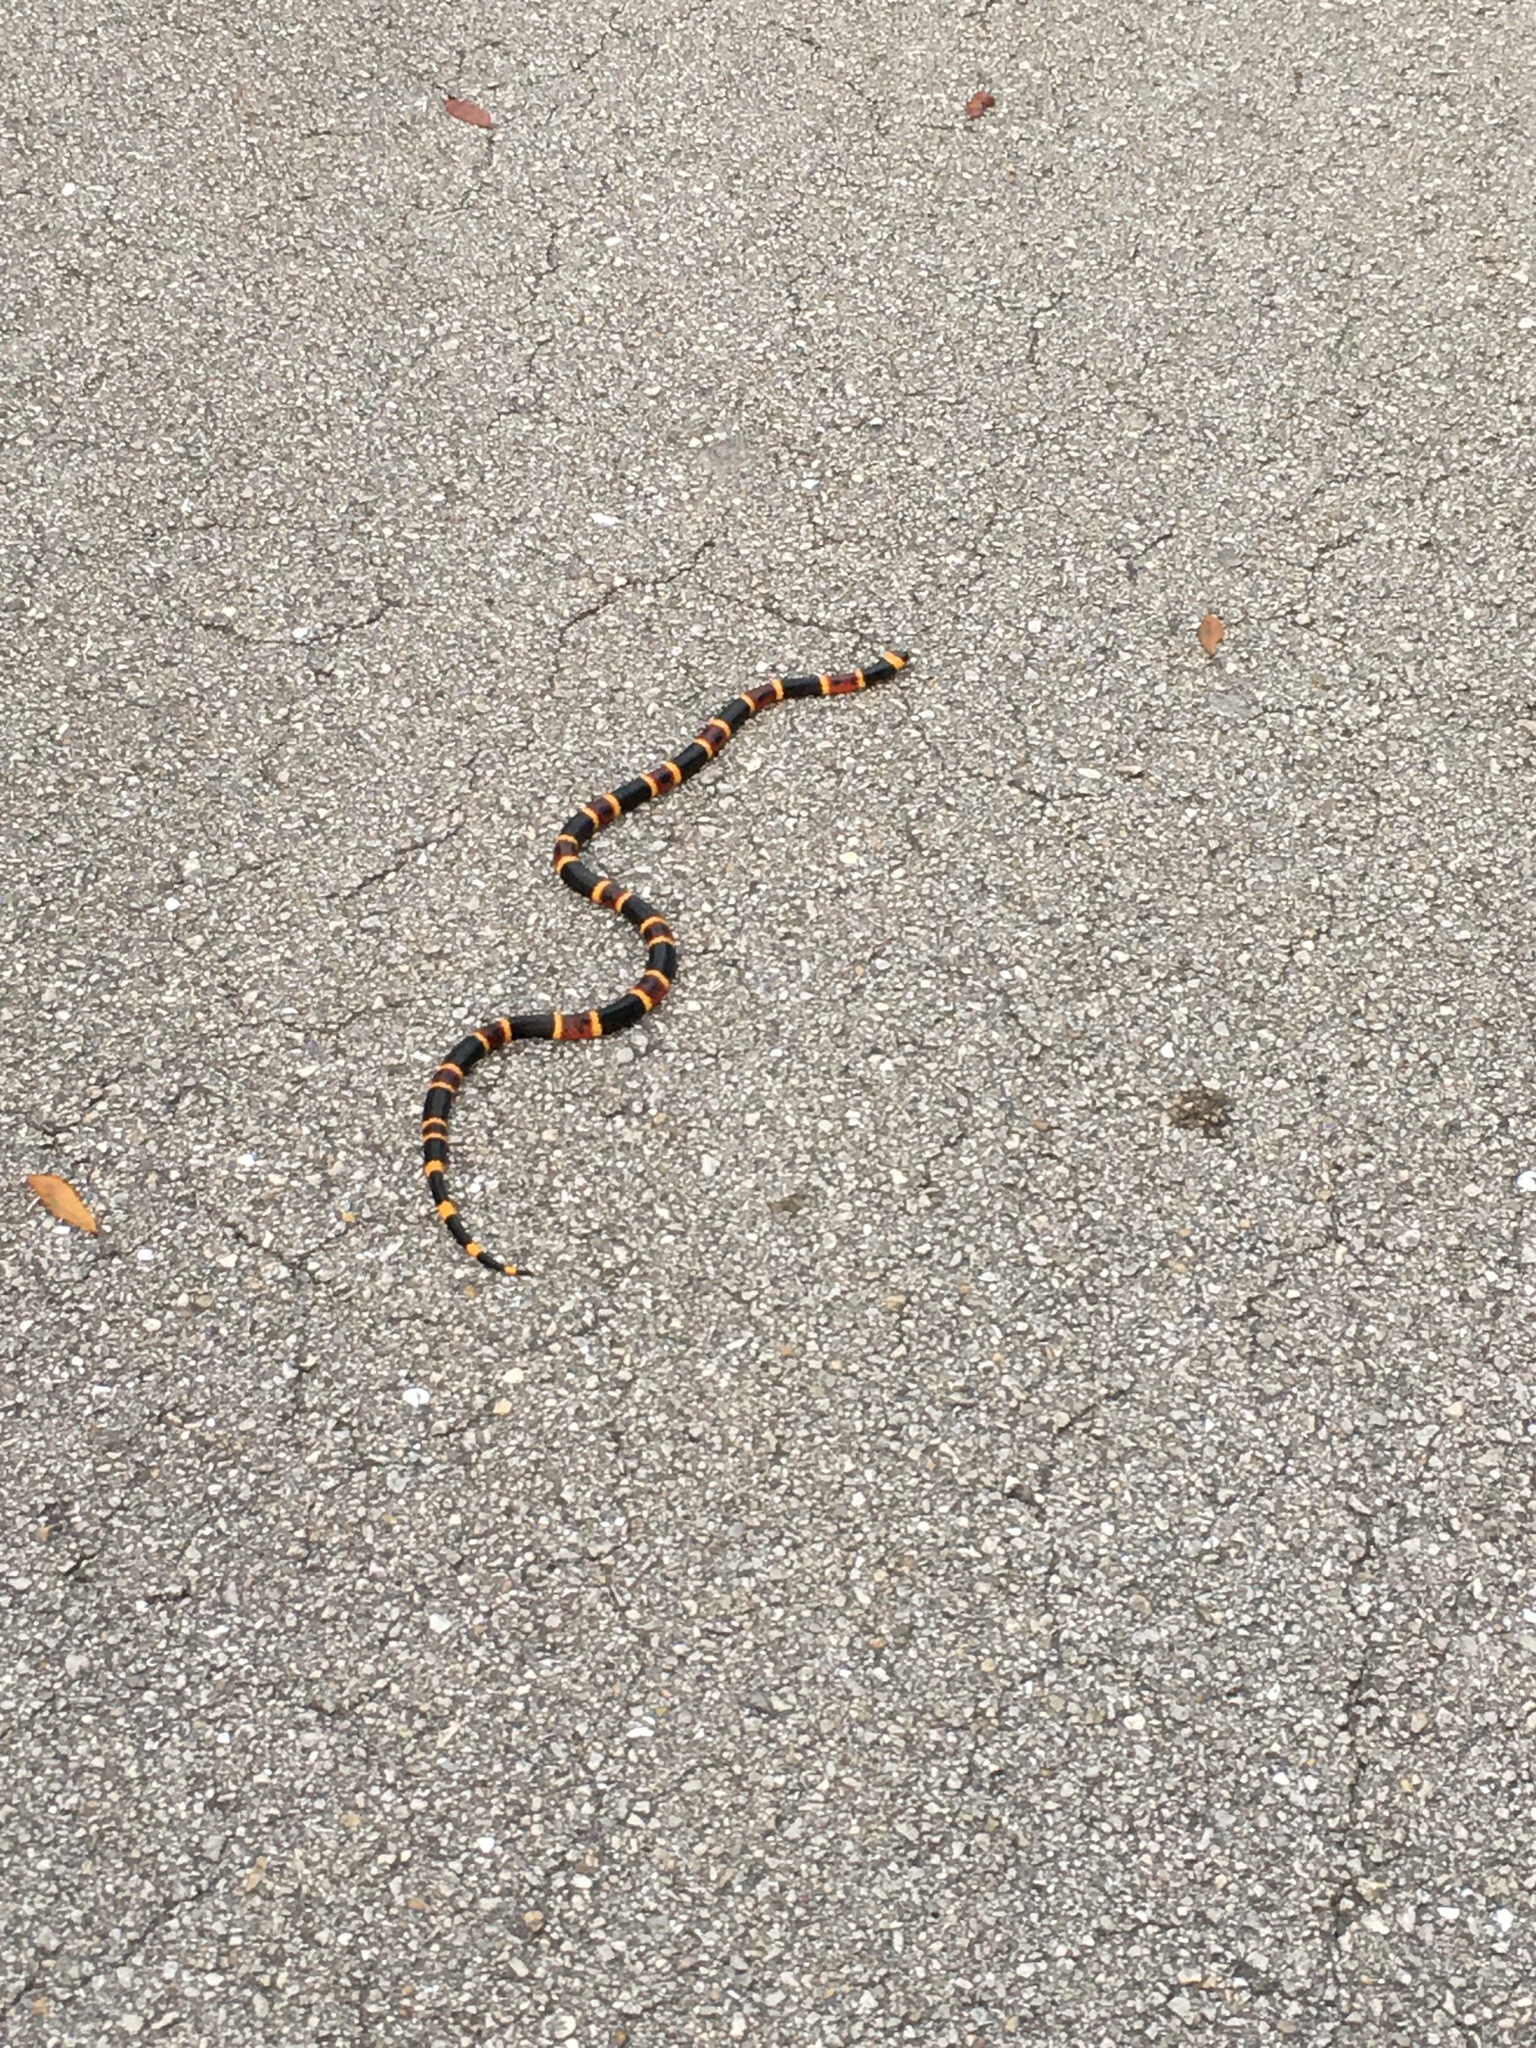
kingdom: Animalia
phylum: Chordata
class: Squamata
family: Elapidae
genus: Micrurus
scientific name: Micrurus fulvius
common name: Eastern coral snake
